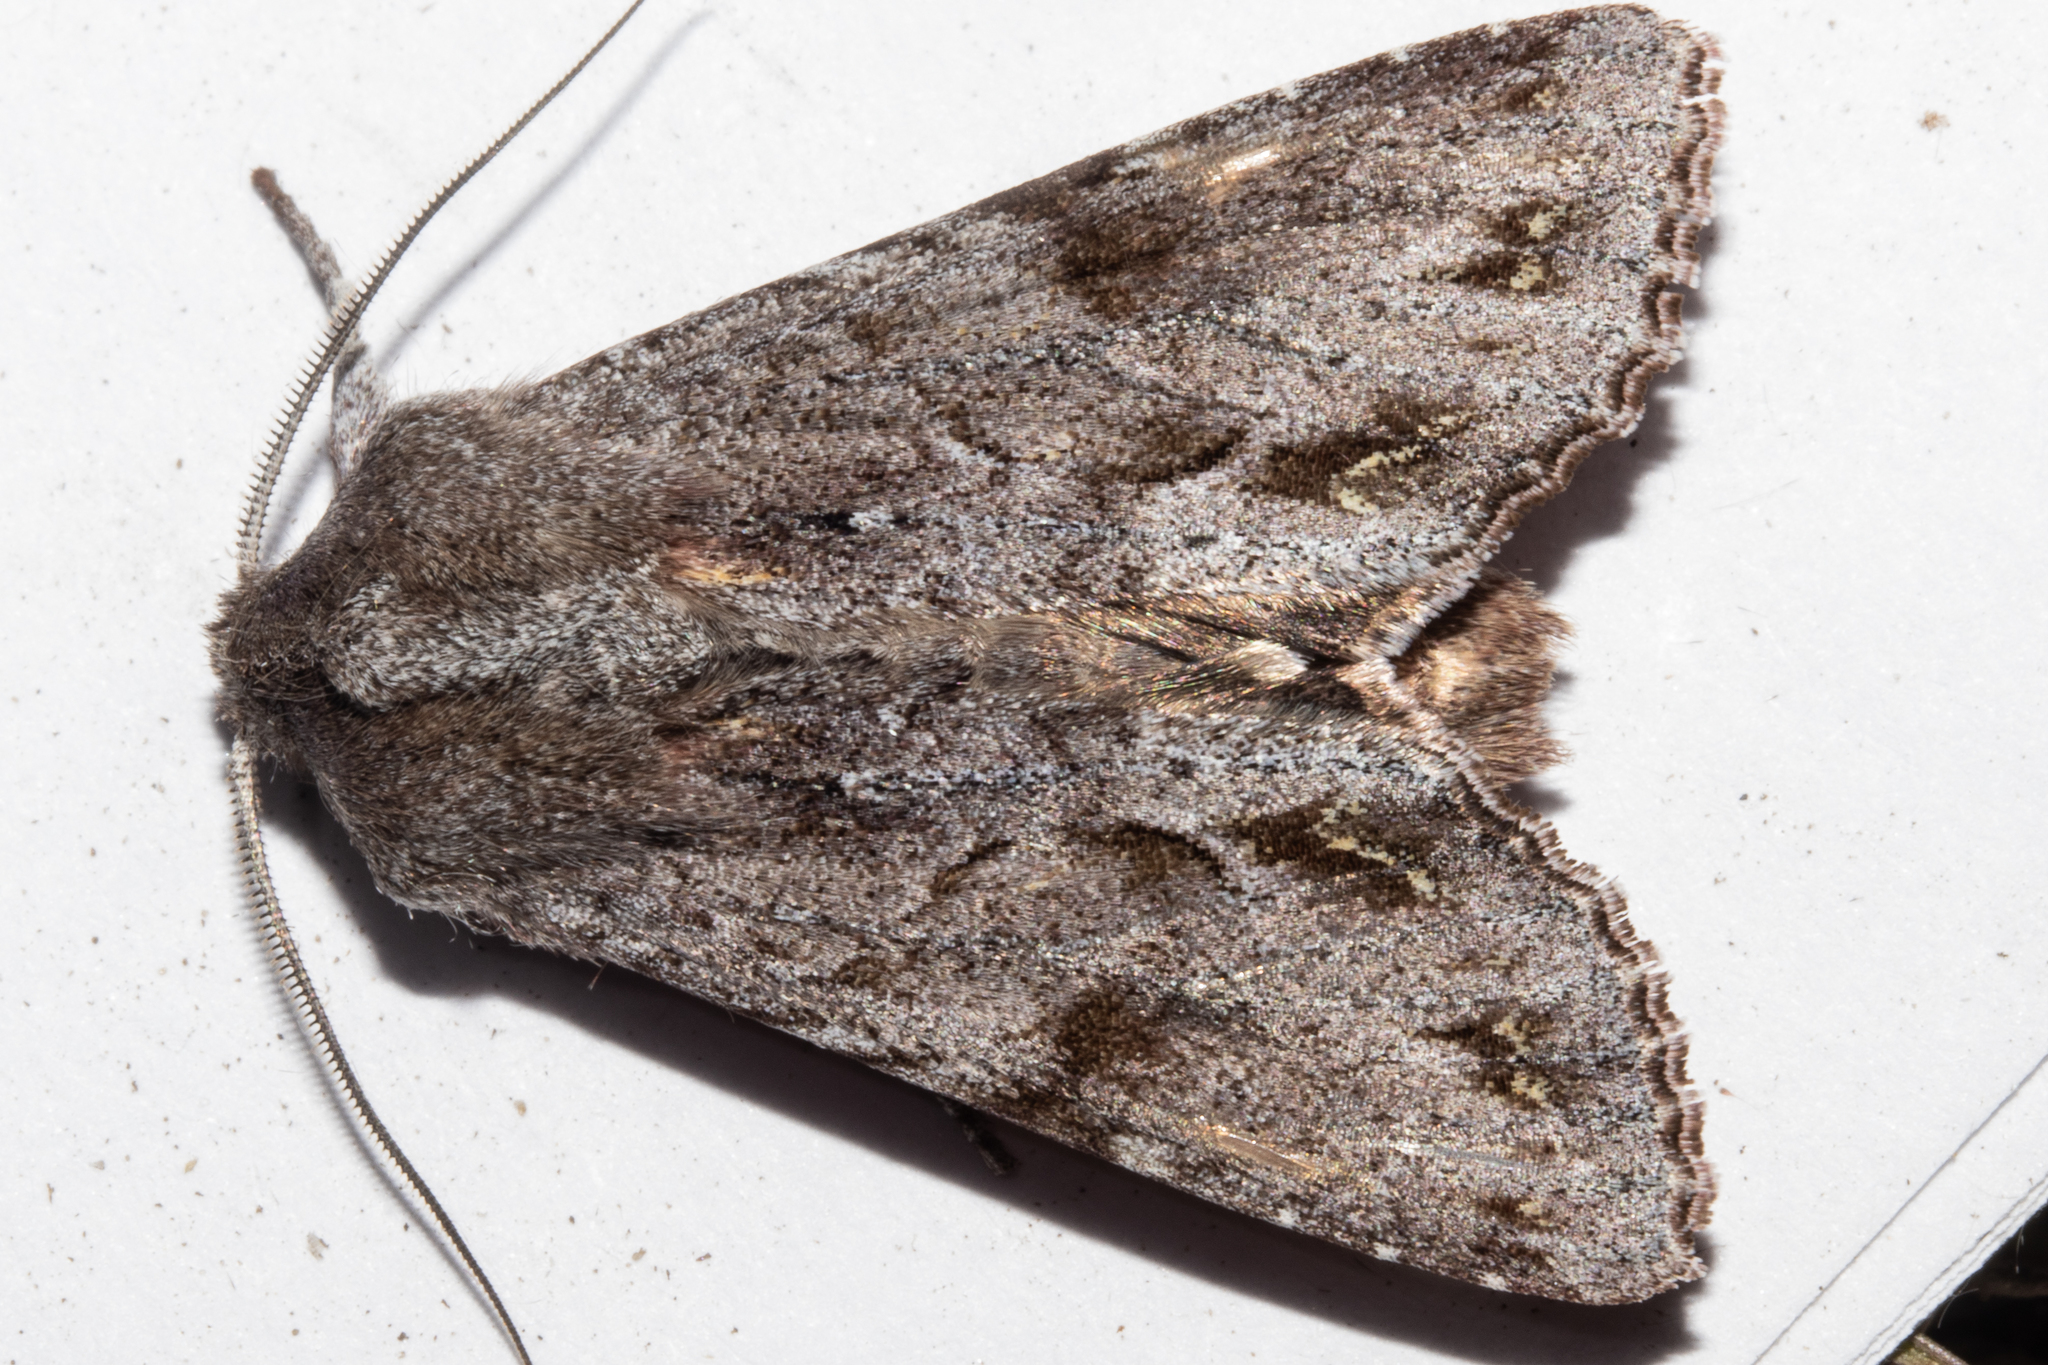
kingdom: Animalia
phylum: Arthropoda
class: Insecta
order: Lepidoptera
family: Noctuidae
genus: Ichneutica
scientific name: Ichneutica
